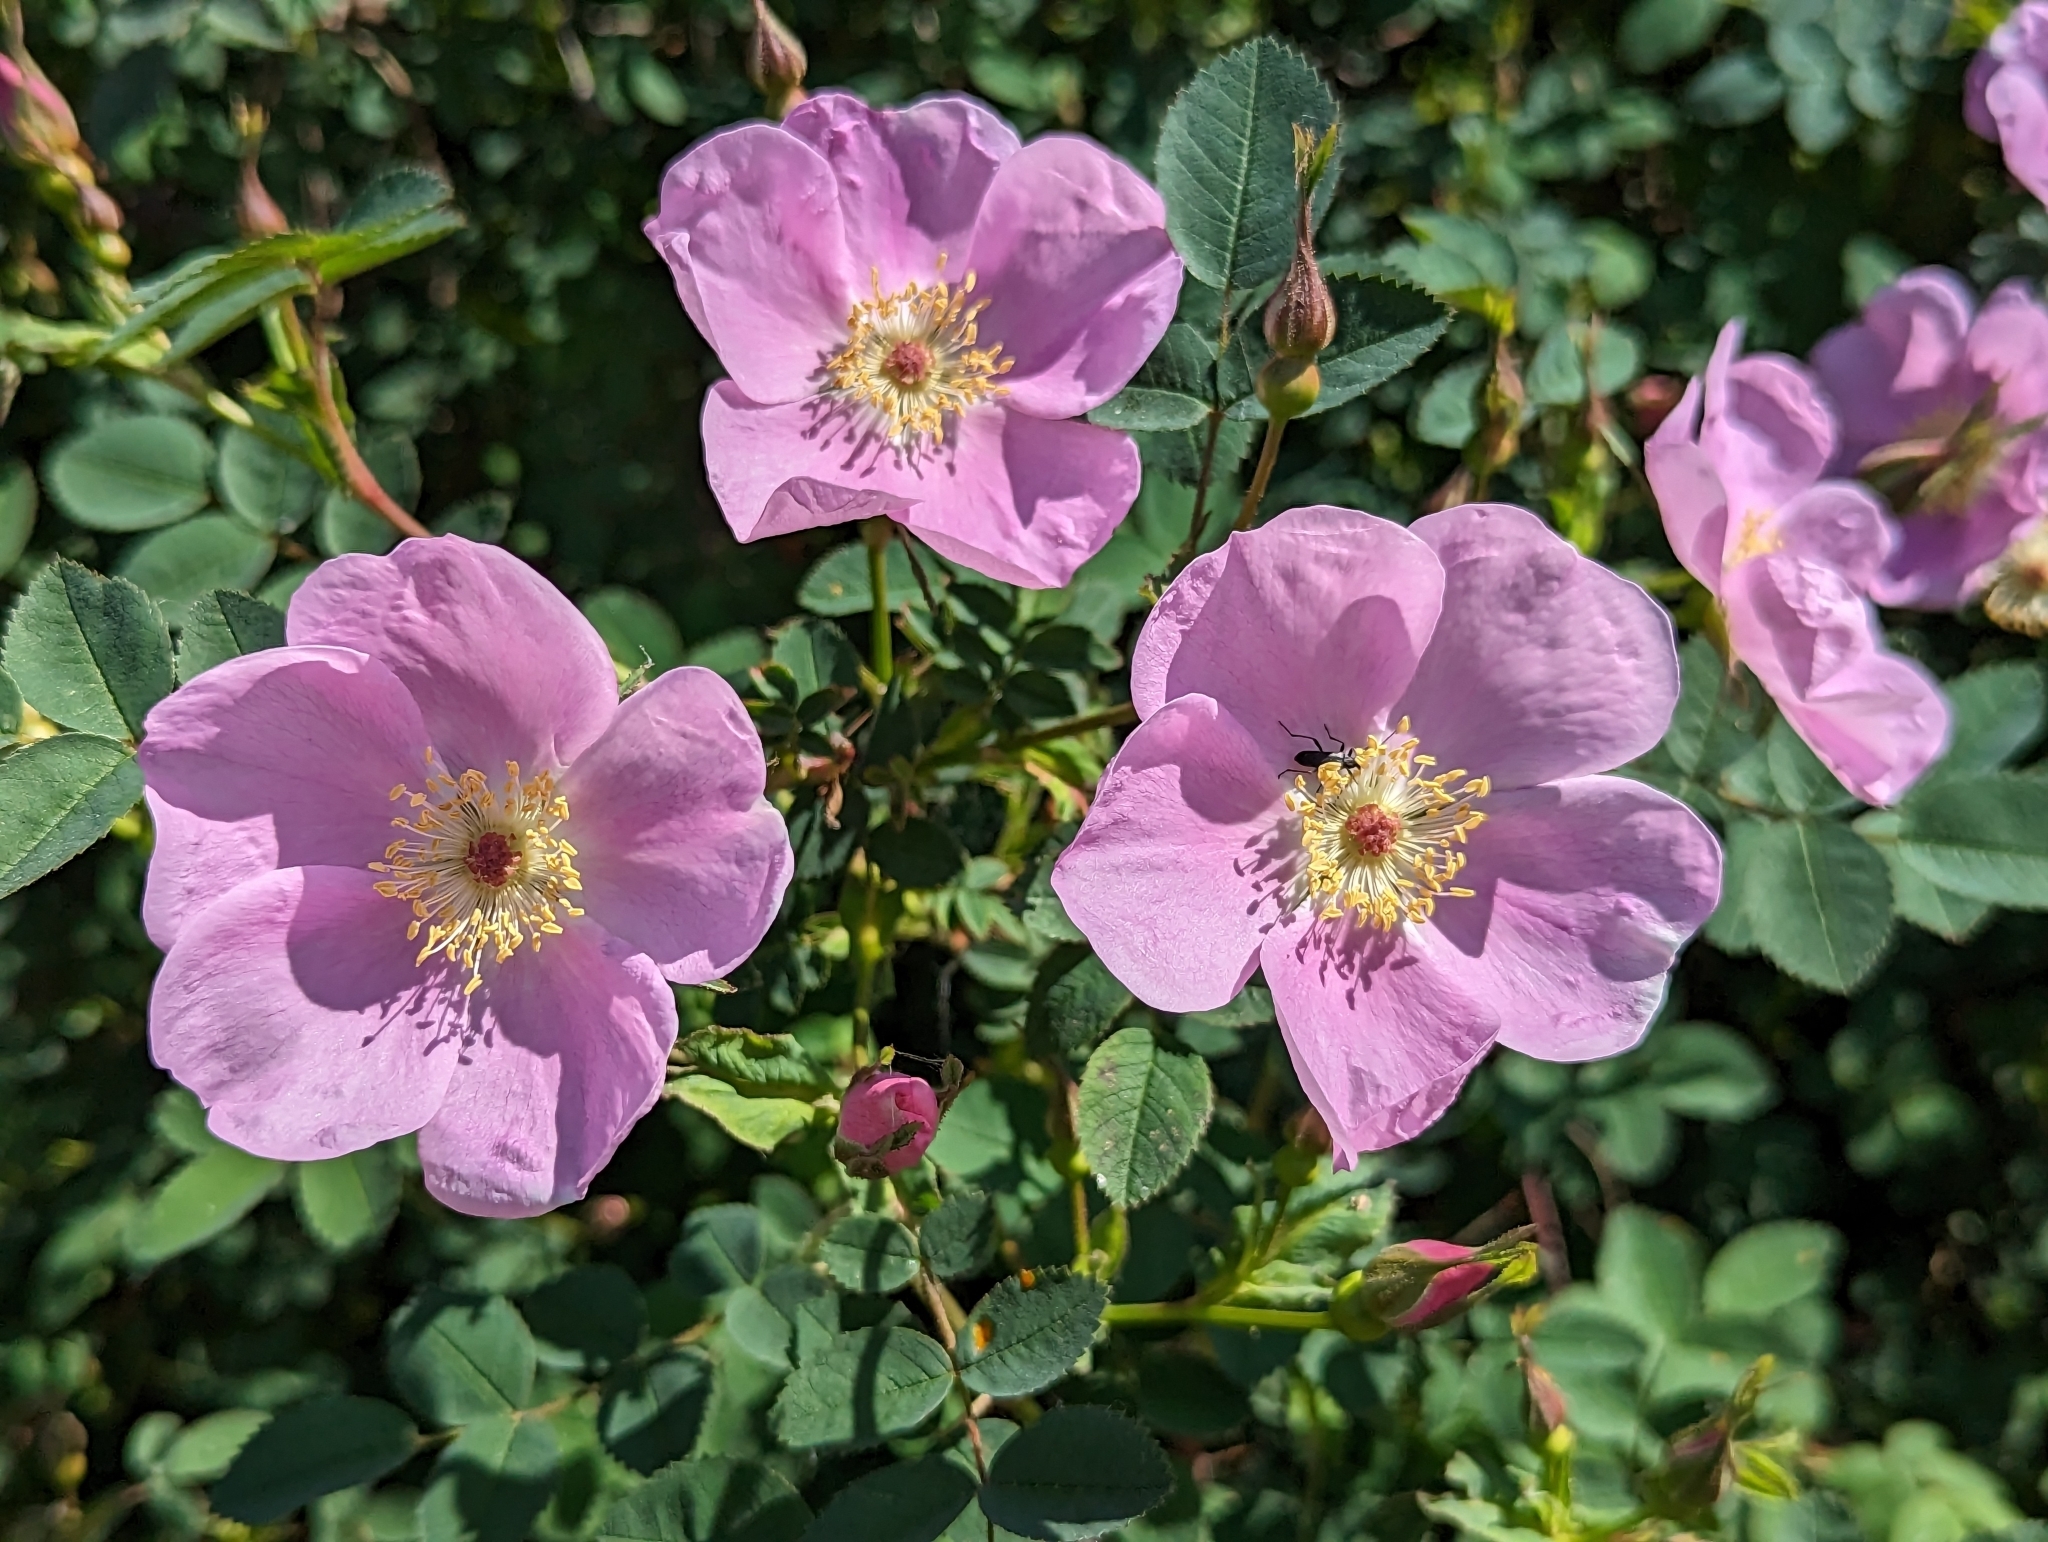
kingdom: Plantae
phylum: Tracheophyta
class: Magnoliopsida
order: Rosales
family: Rosaceae
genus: Rosa
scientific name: Rosa nutkana
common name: Nootka rose
